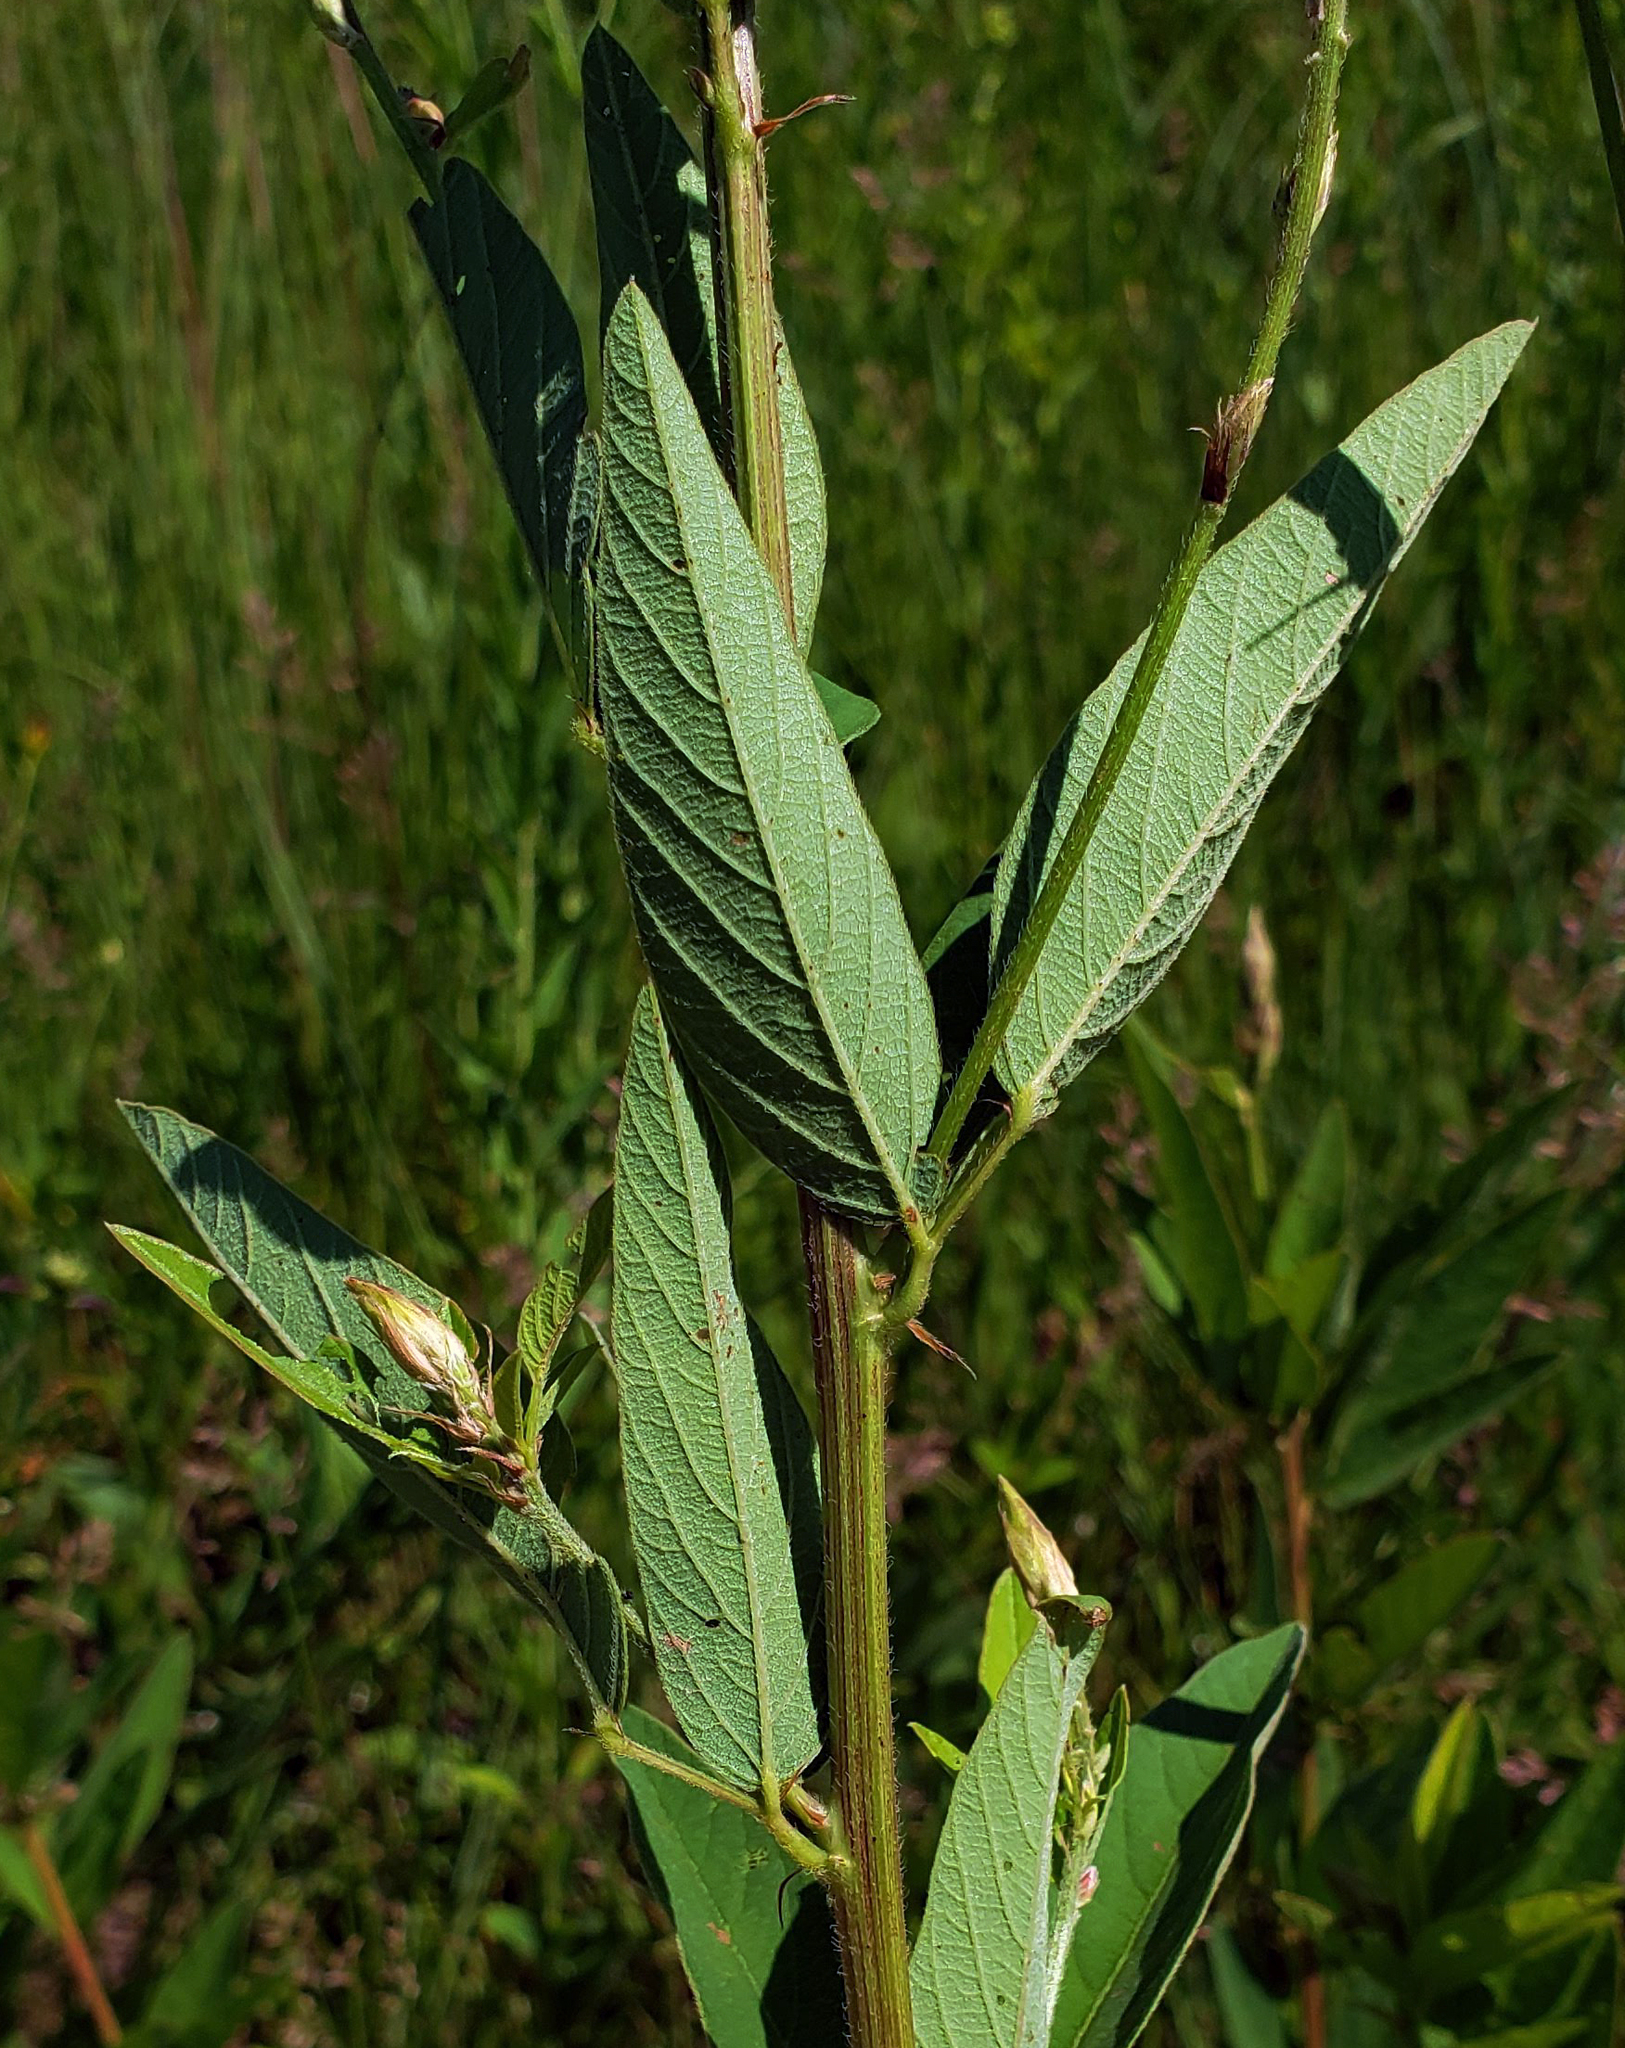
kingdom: Plantae
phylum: Tracheophyta
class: Magnoliopsida
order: Fabales
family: Fabaceae
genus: Desmodium
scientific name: Desmodium canadense
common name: Canada tick-trefoil
